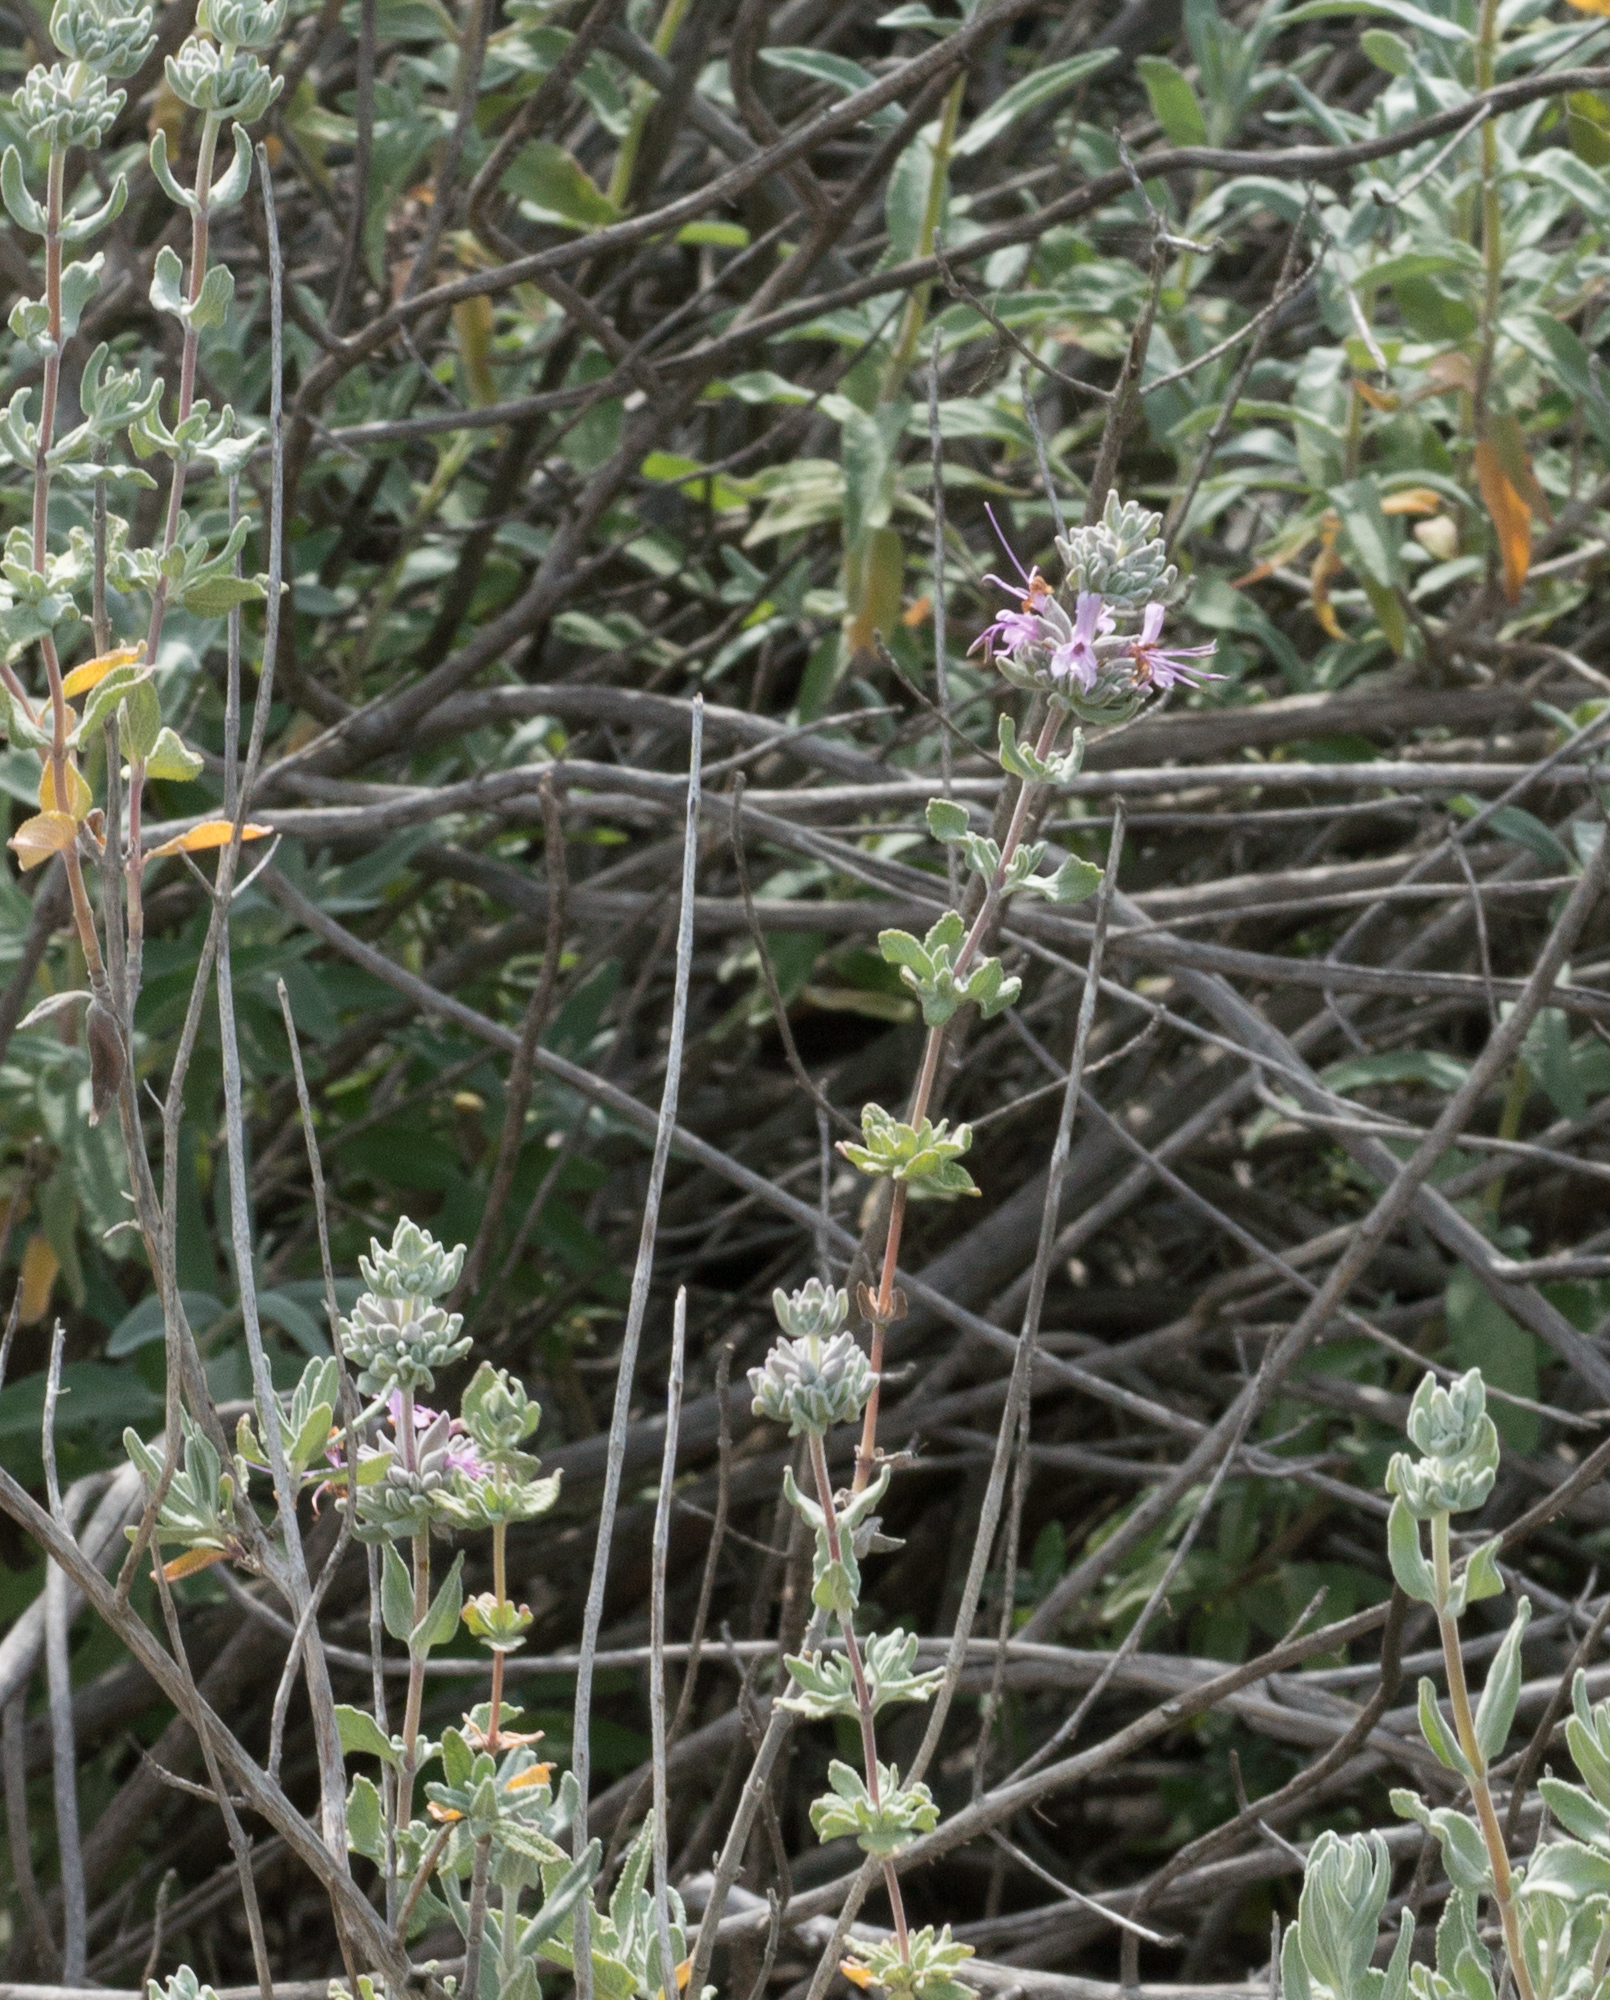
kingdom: Plantae
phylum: Tracheophyta
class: Magnoliopsida
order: Lamiales
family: Lamiaceae
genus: Salvia
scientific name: Salvia leucophylla
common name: Purple sage
